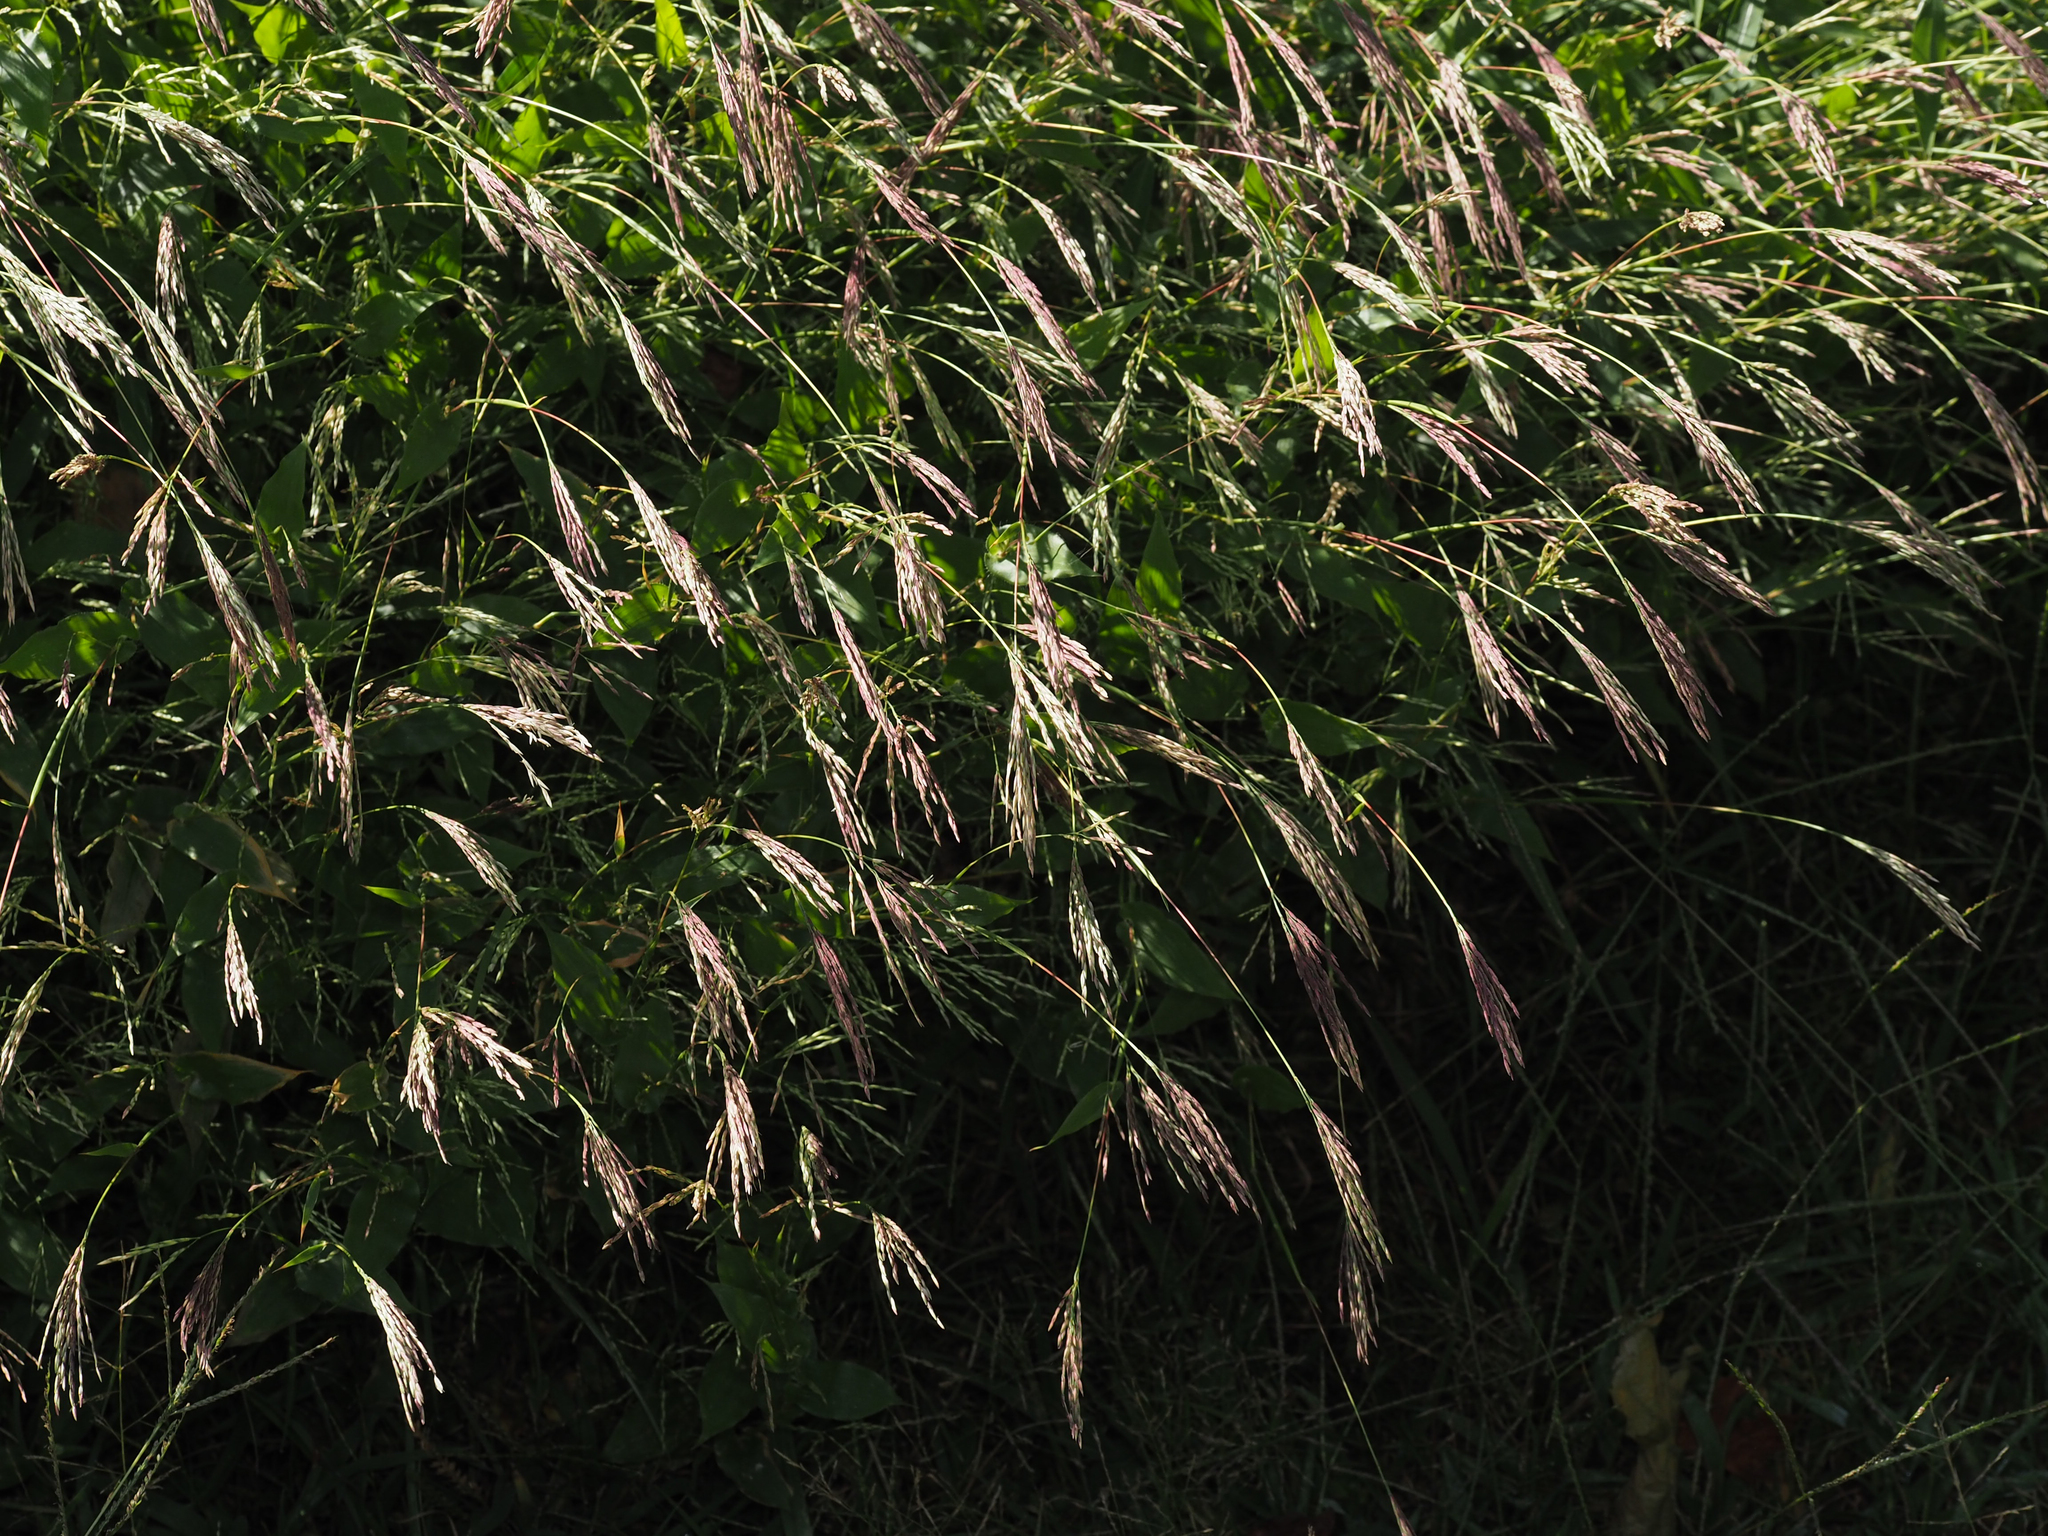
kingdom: Plantae
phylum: Tracheophyta
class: Liliopsida
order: Poales
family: Poaceae
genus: Arthraxon
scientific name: Arthraxon hispidus
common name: Small carpgrass
